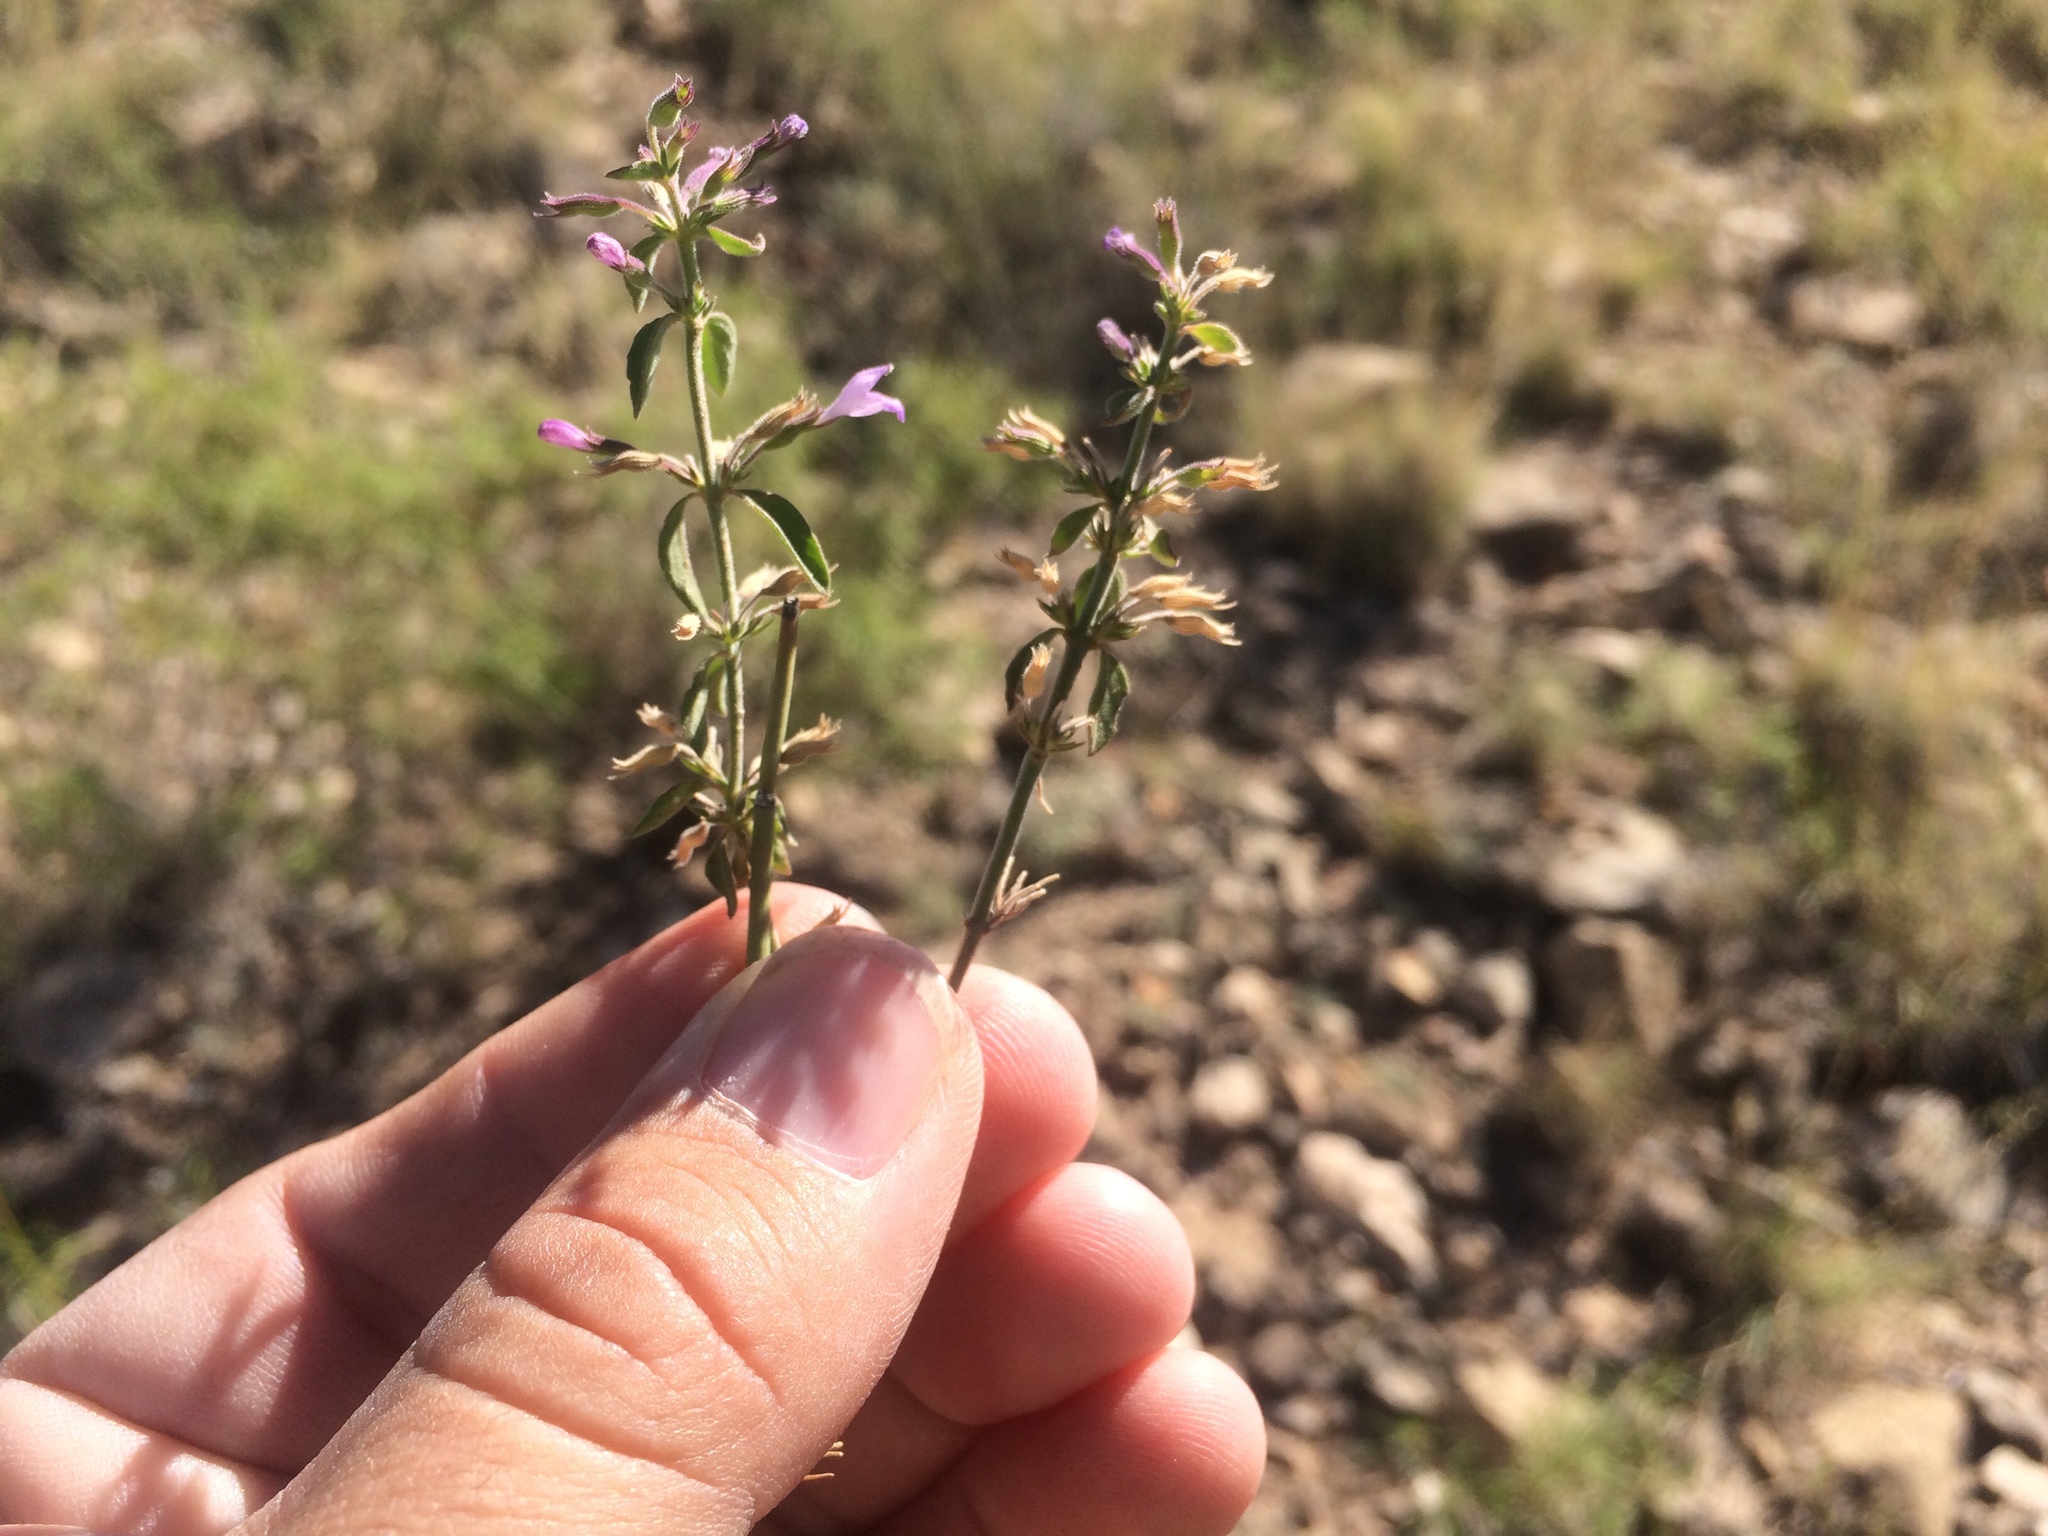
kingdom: Plantae
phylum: Tracheophyta
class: Magnoliopsida
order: Lamiales
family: Lamiaceae
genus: Hedeoma
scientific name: Hedeoma nana
